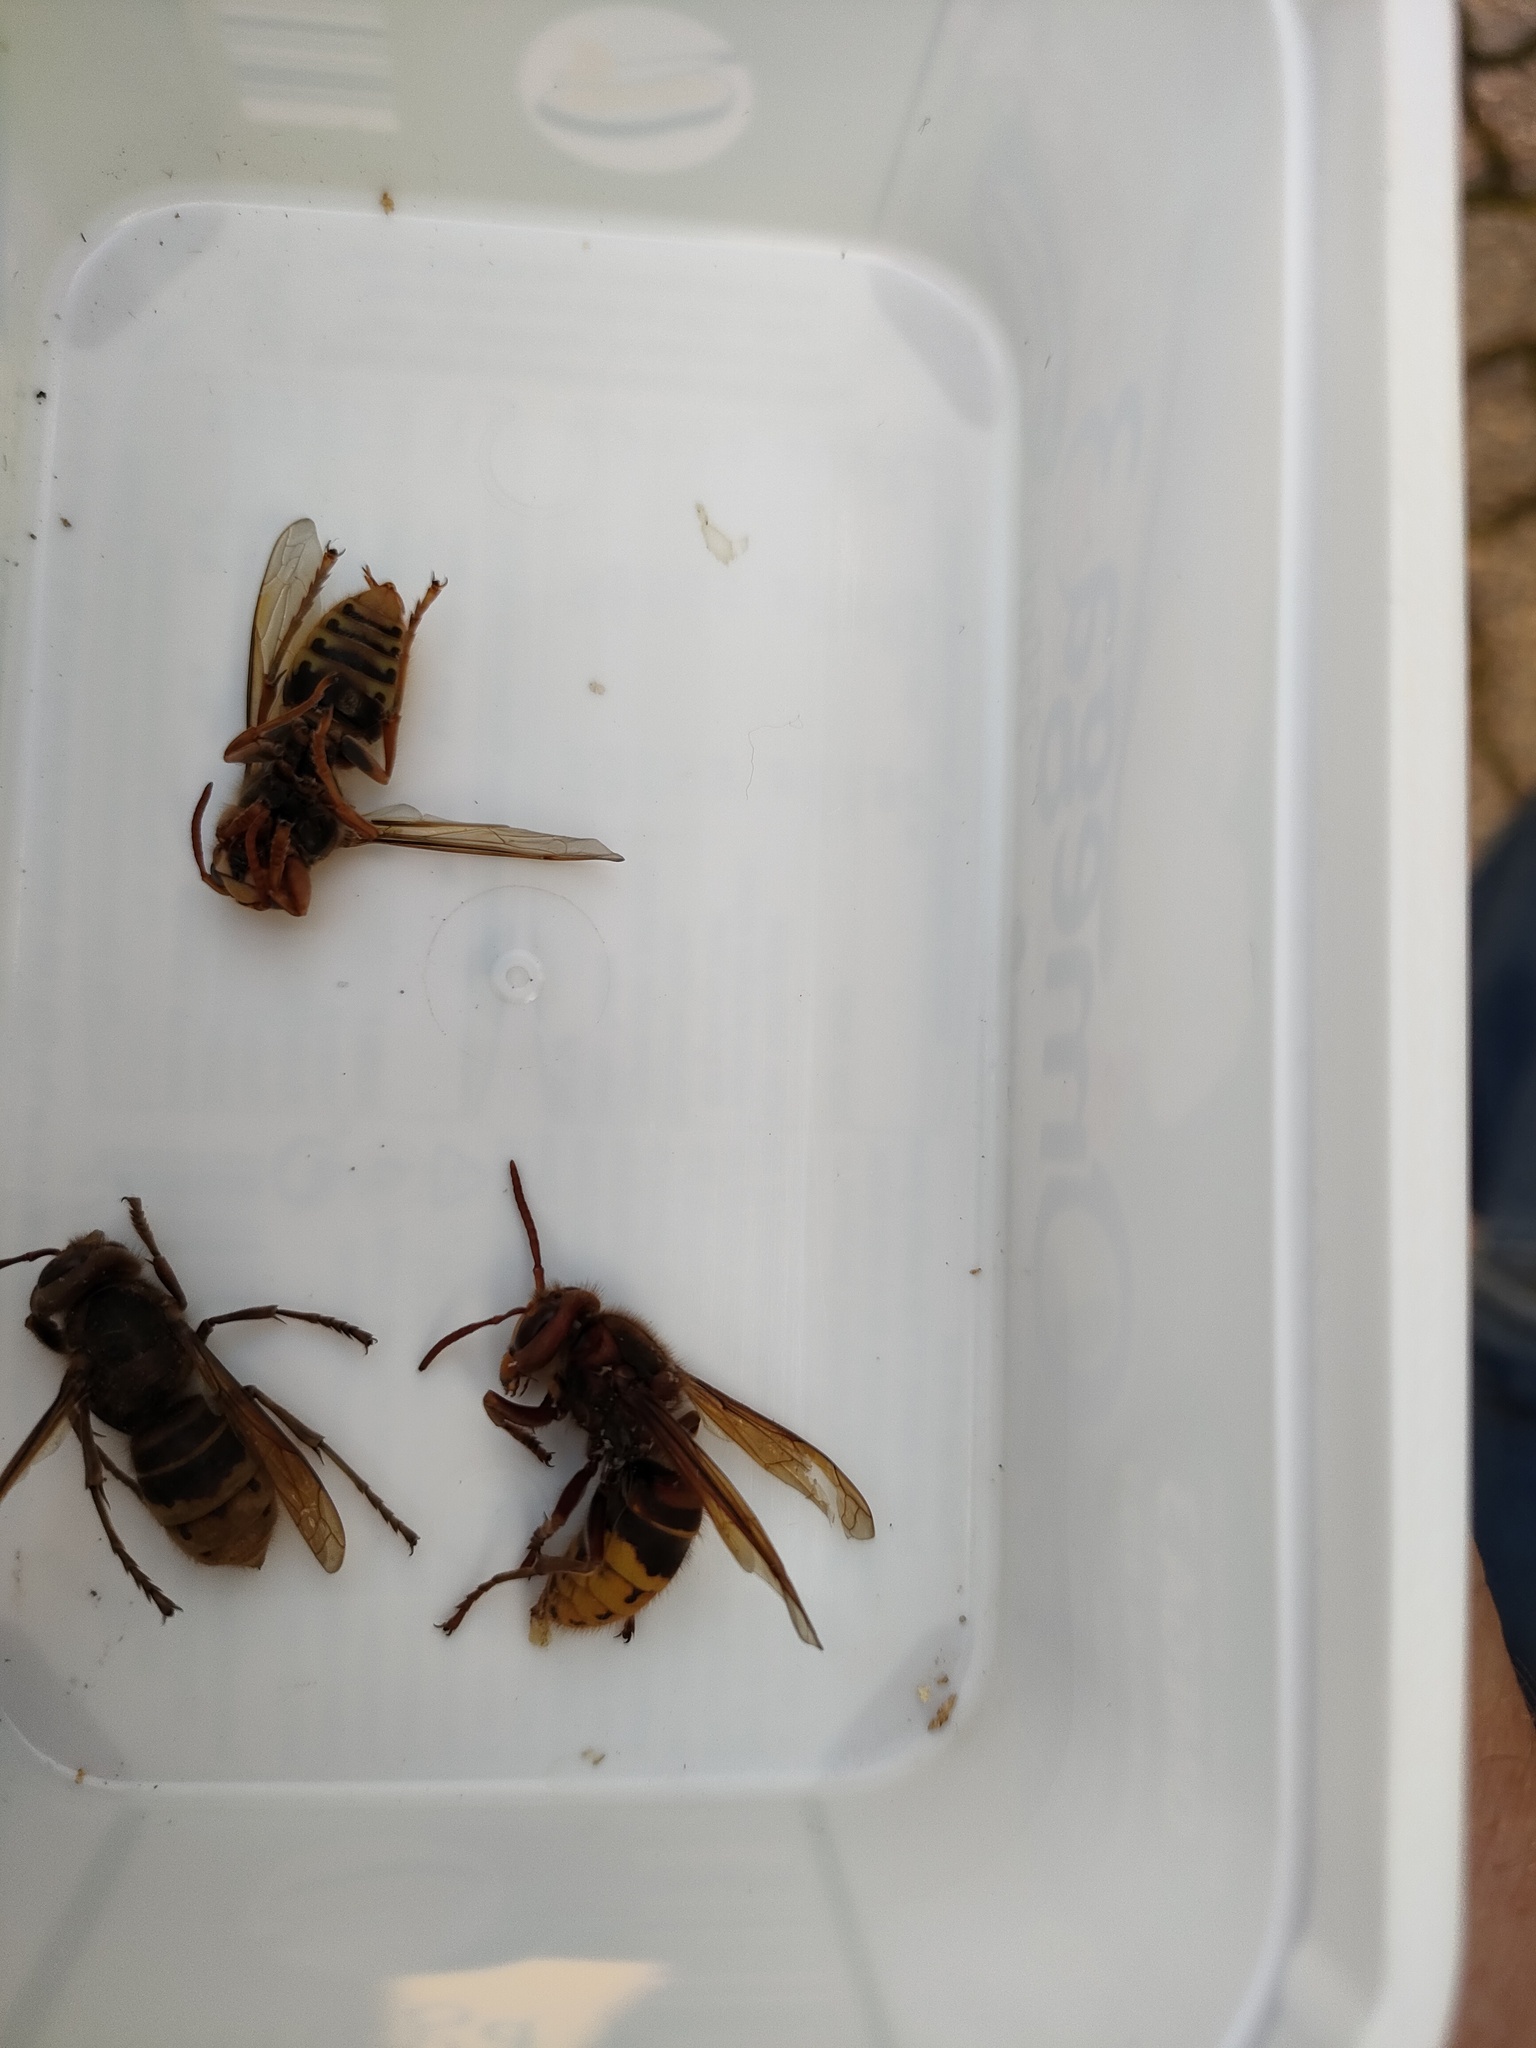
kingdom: Animalia
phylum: Arthropoda
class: Insecta
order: Hymenoptera
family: Vespidae
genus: Vespa
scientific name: Vespa crabro
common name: Hornet
